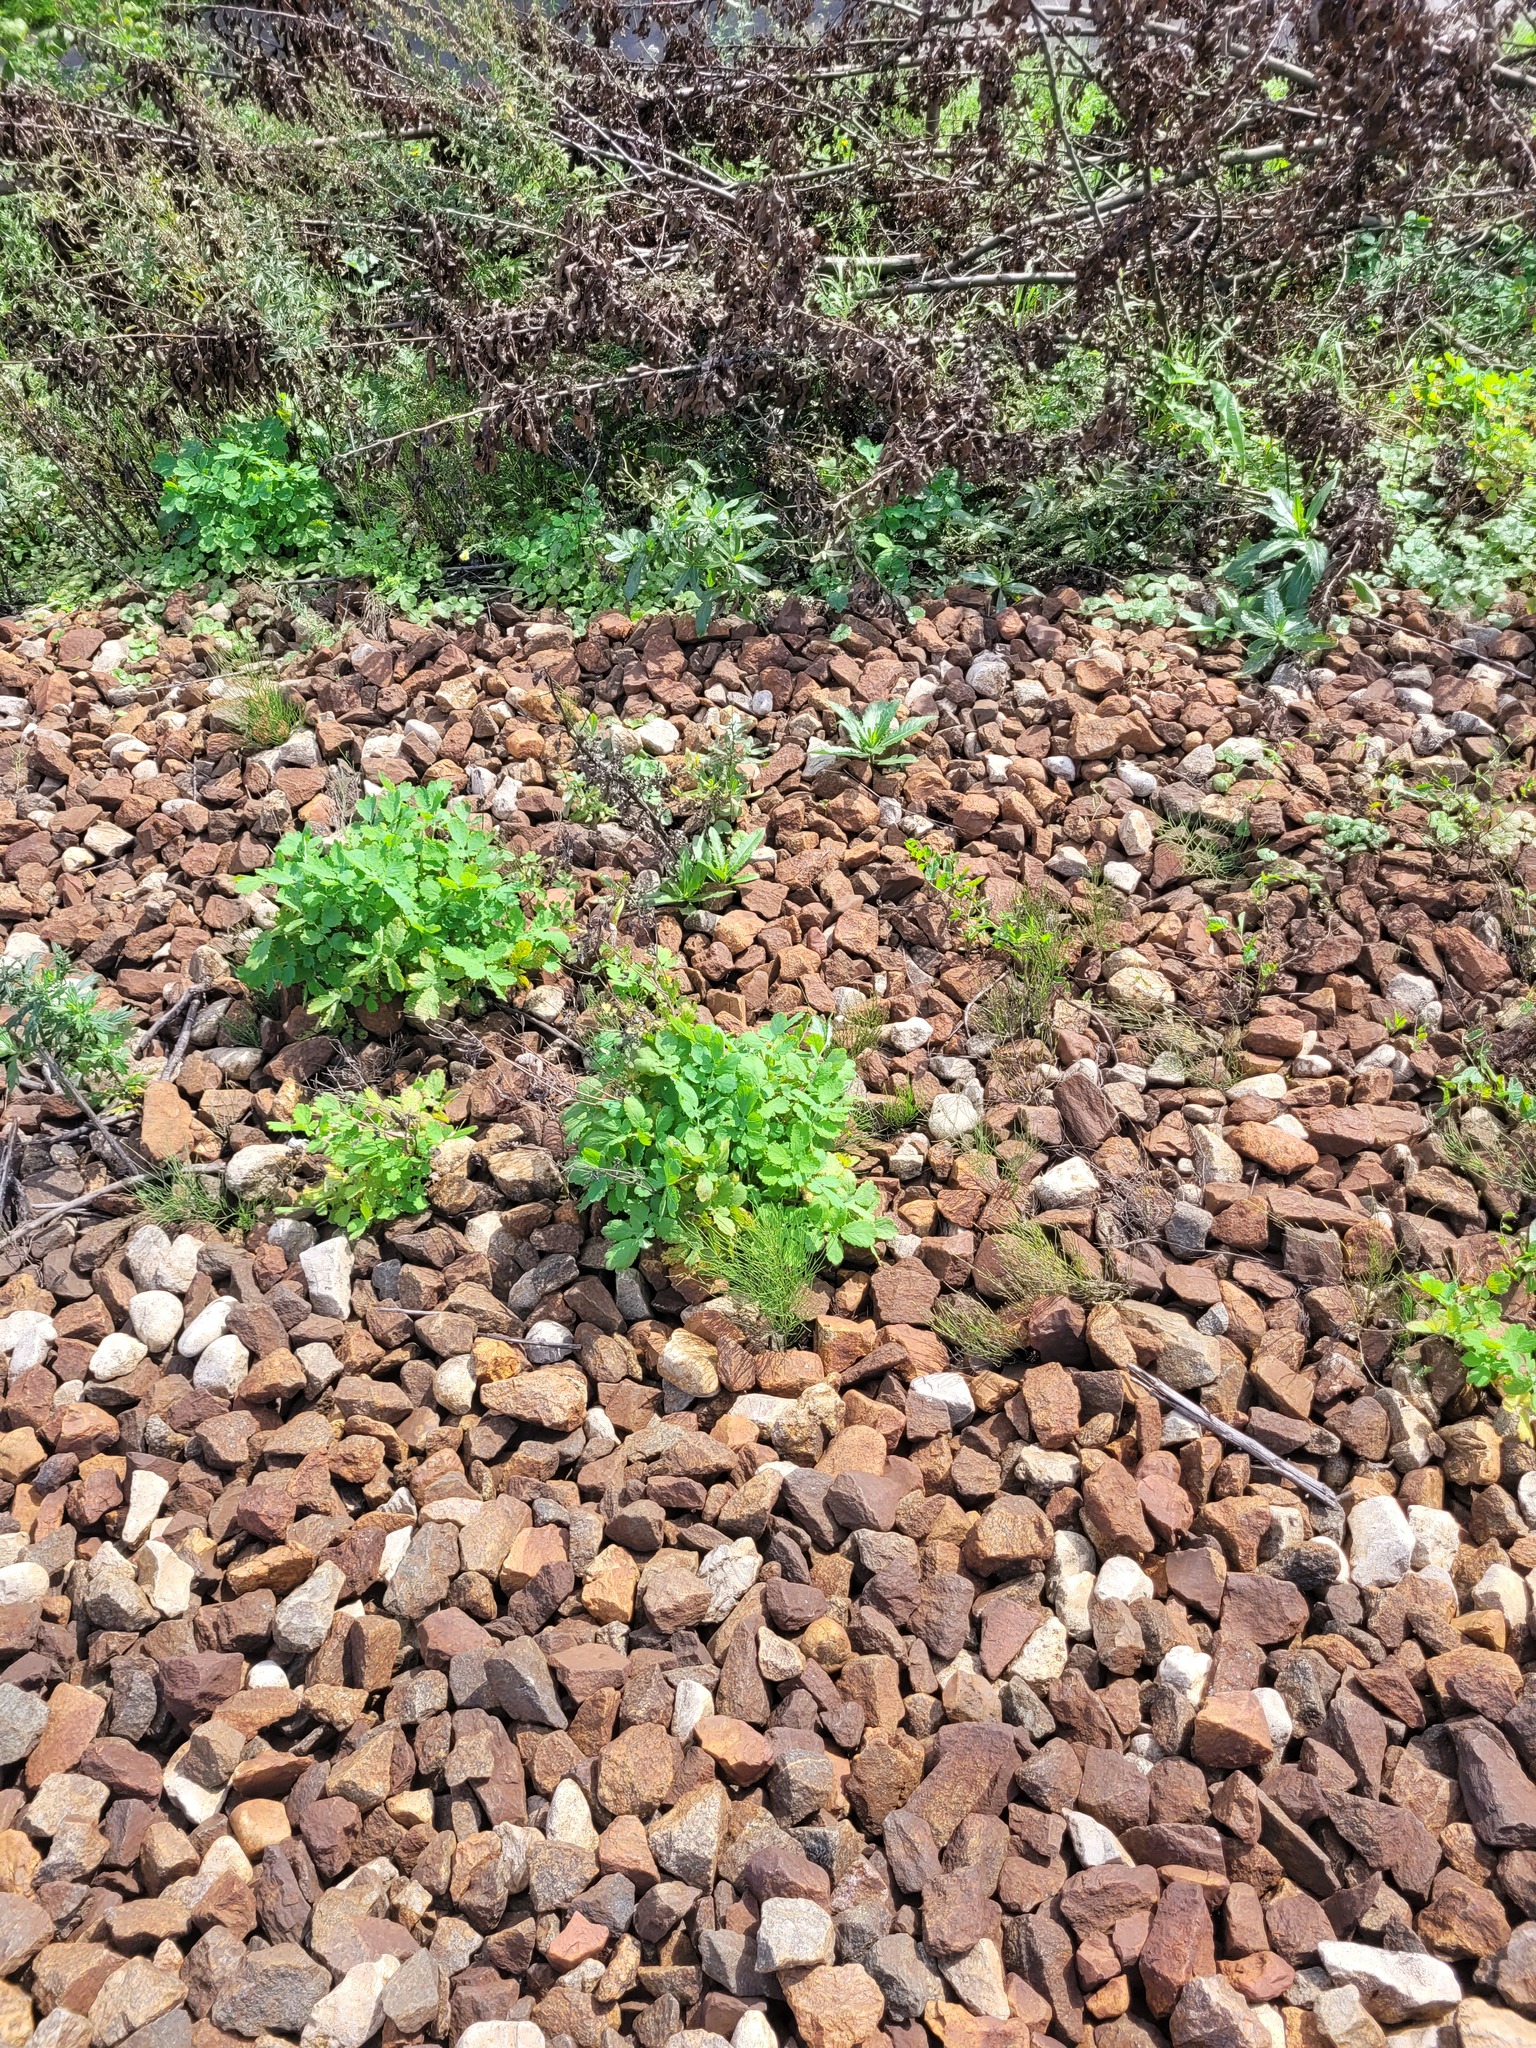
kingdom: Plantae
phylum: Tracheophyta
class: Magnoliopsida
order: Ranunculales
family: Papaveraceae
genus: Chelidonium
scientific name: Chelidonium majus
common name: Greater celandine
